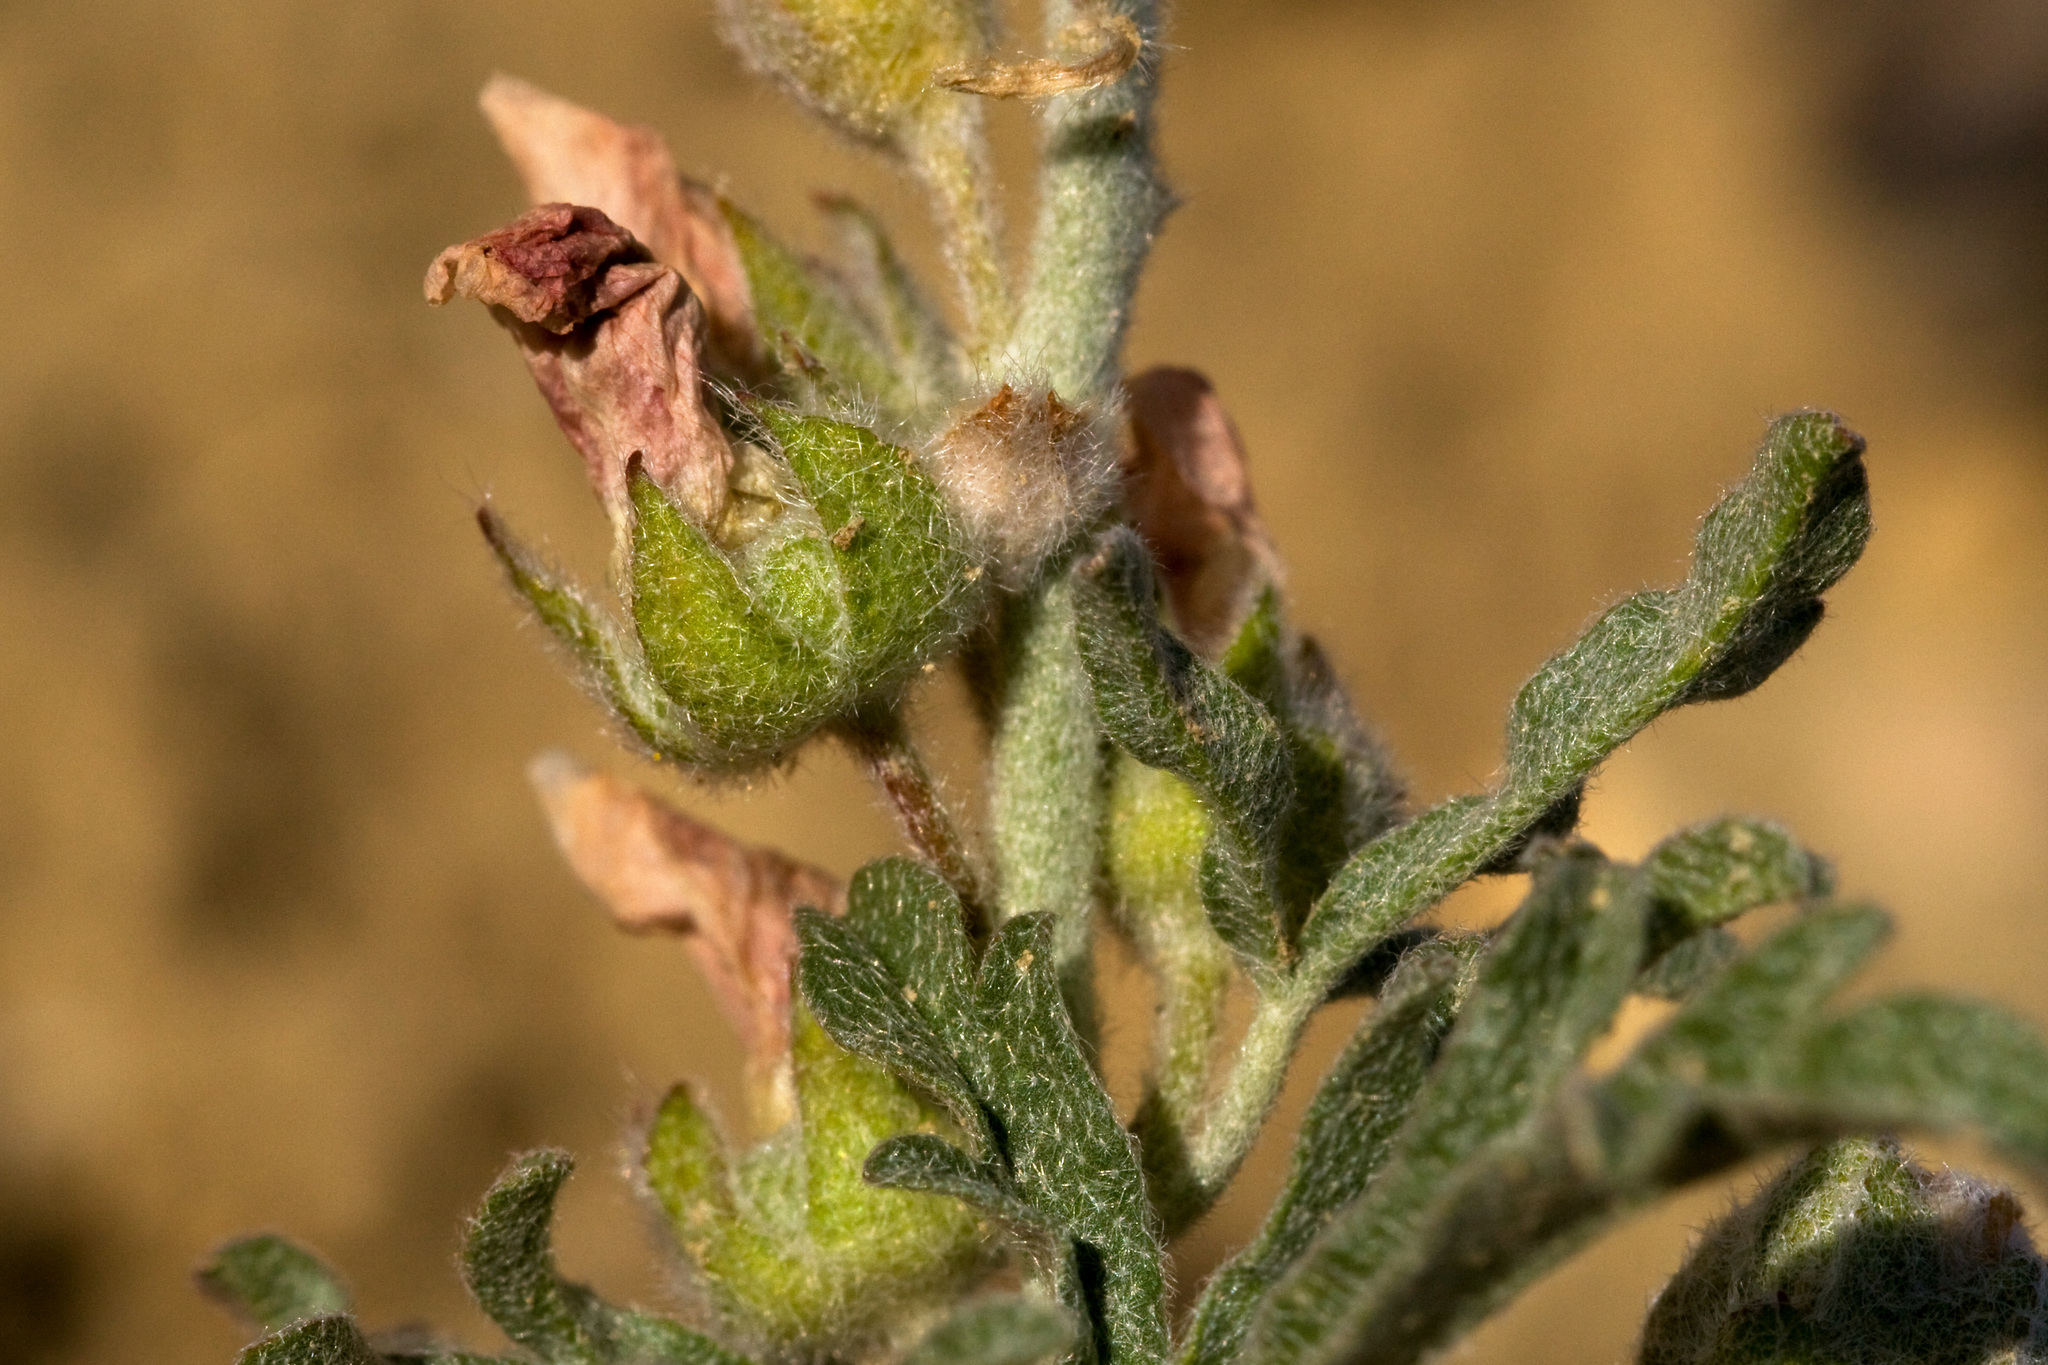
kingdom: Plantae
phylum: Tracheophyta
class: Magnoliopsida
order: Malvales
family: Malvaceae
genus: Sphaeralcea
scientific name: Sphaeralcea coccinea
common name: Moss-rose
